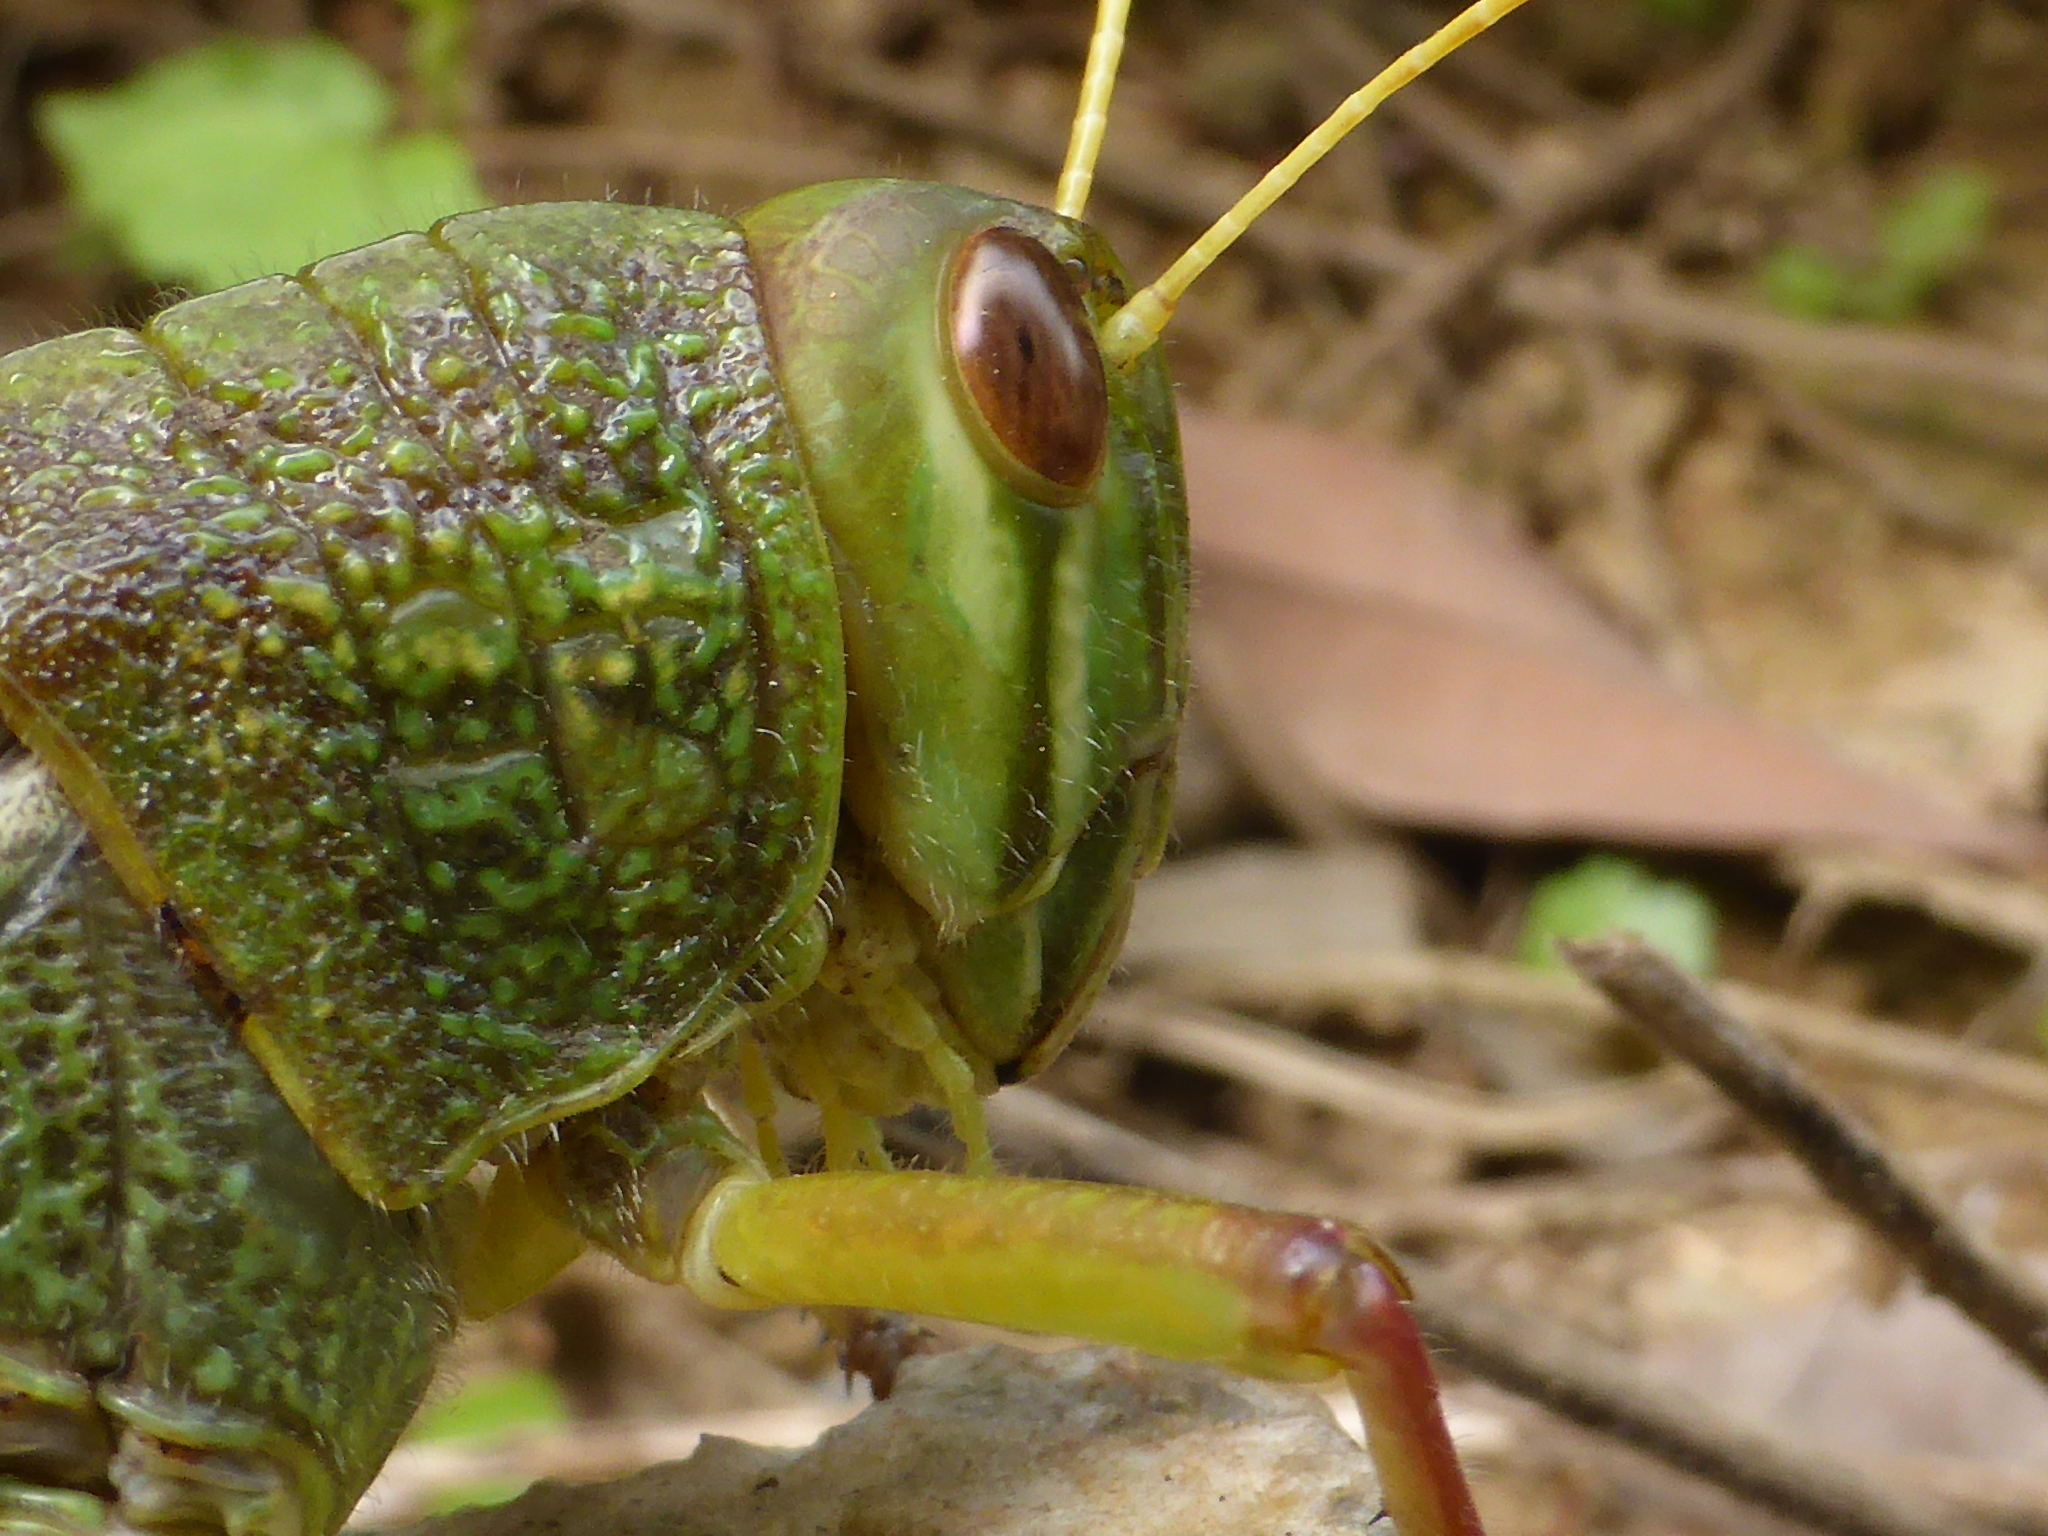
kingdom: Animalia
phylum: Arthropoda
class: Insecta
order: Orthoptera
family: Acrididae
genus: Chondracris
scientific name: Chondracris rosea
